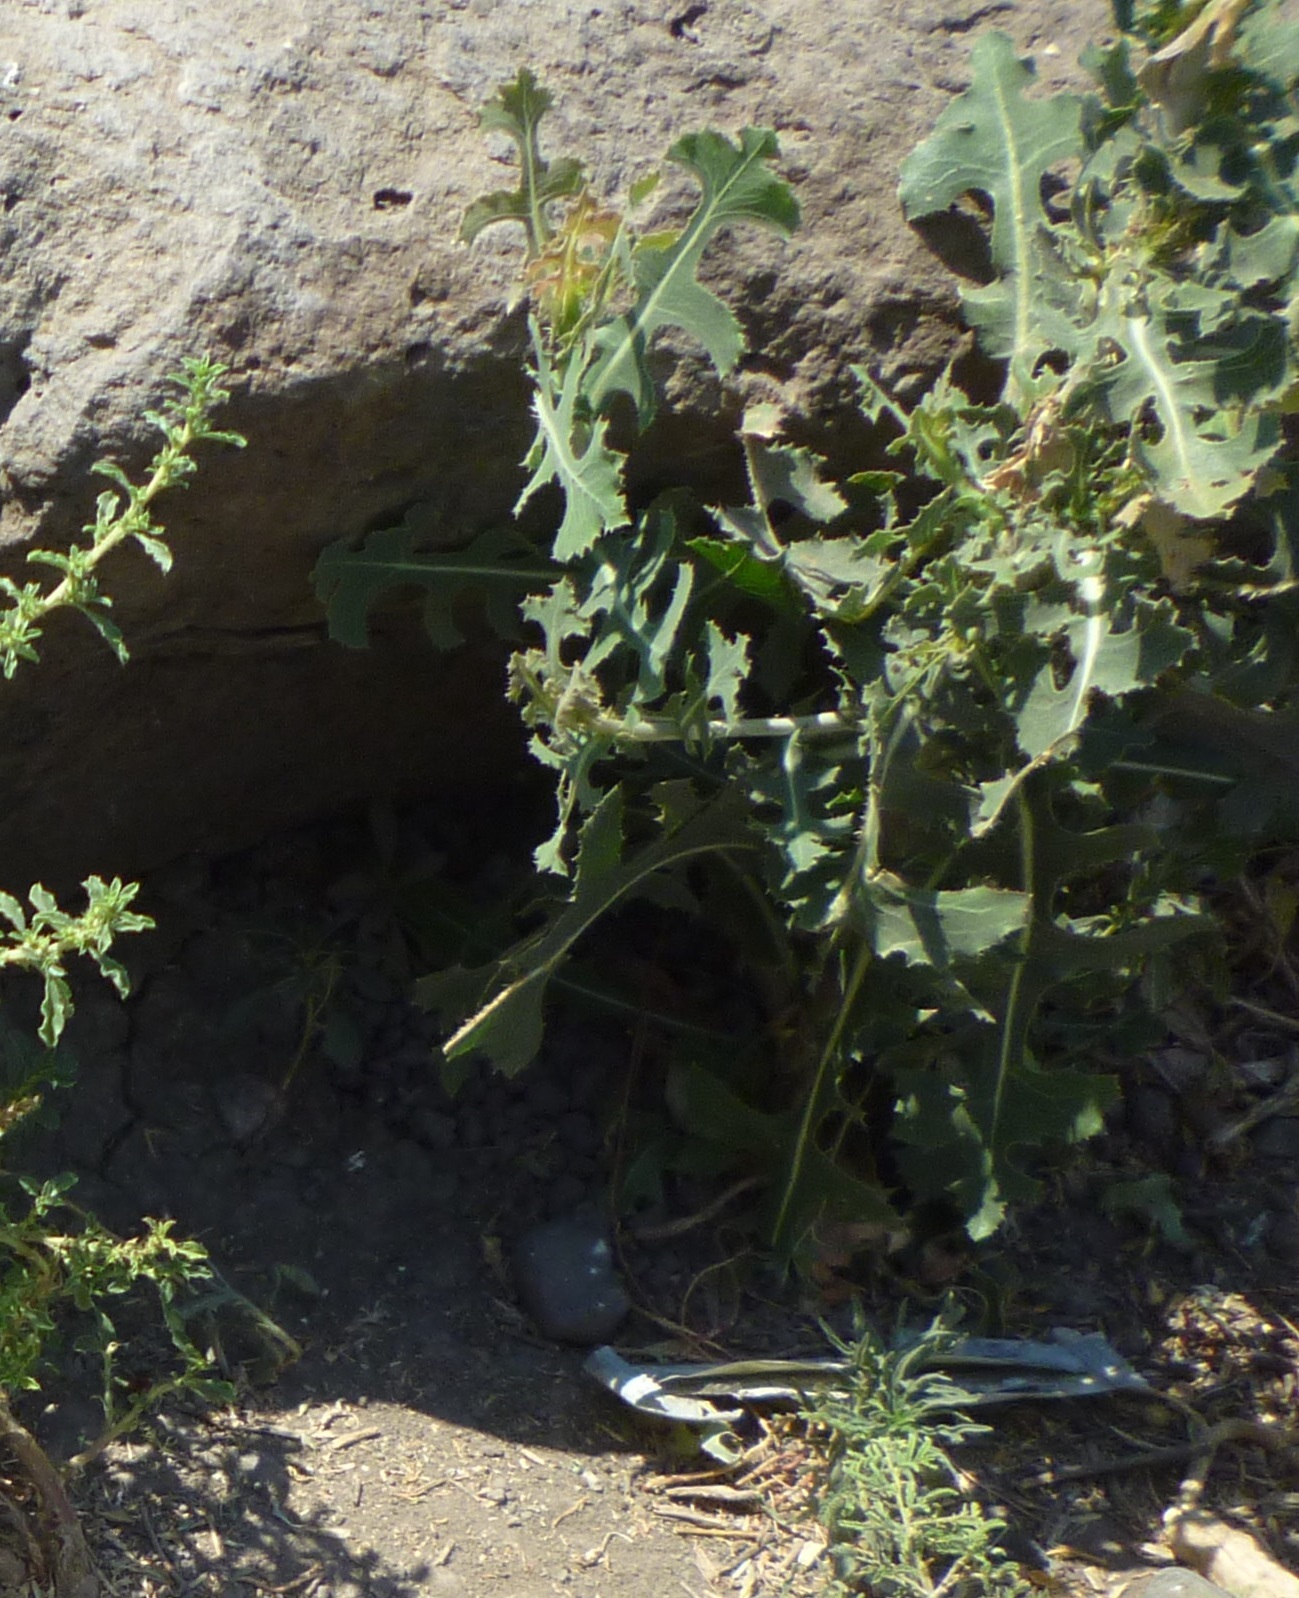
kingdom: Plantae
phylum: Tracheophyta
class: Magnoliopsida
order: Asterales
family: Asteraceae
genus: Lactuca
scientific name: Lactuca serriola
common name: Prickly lettuce
